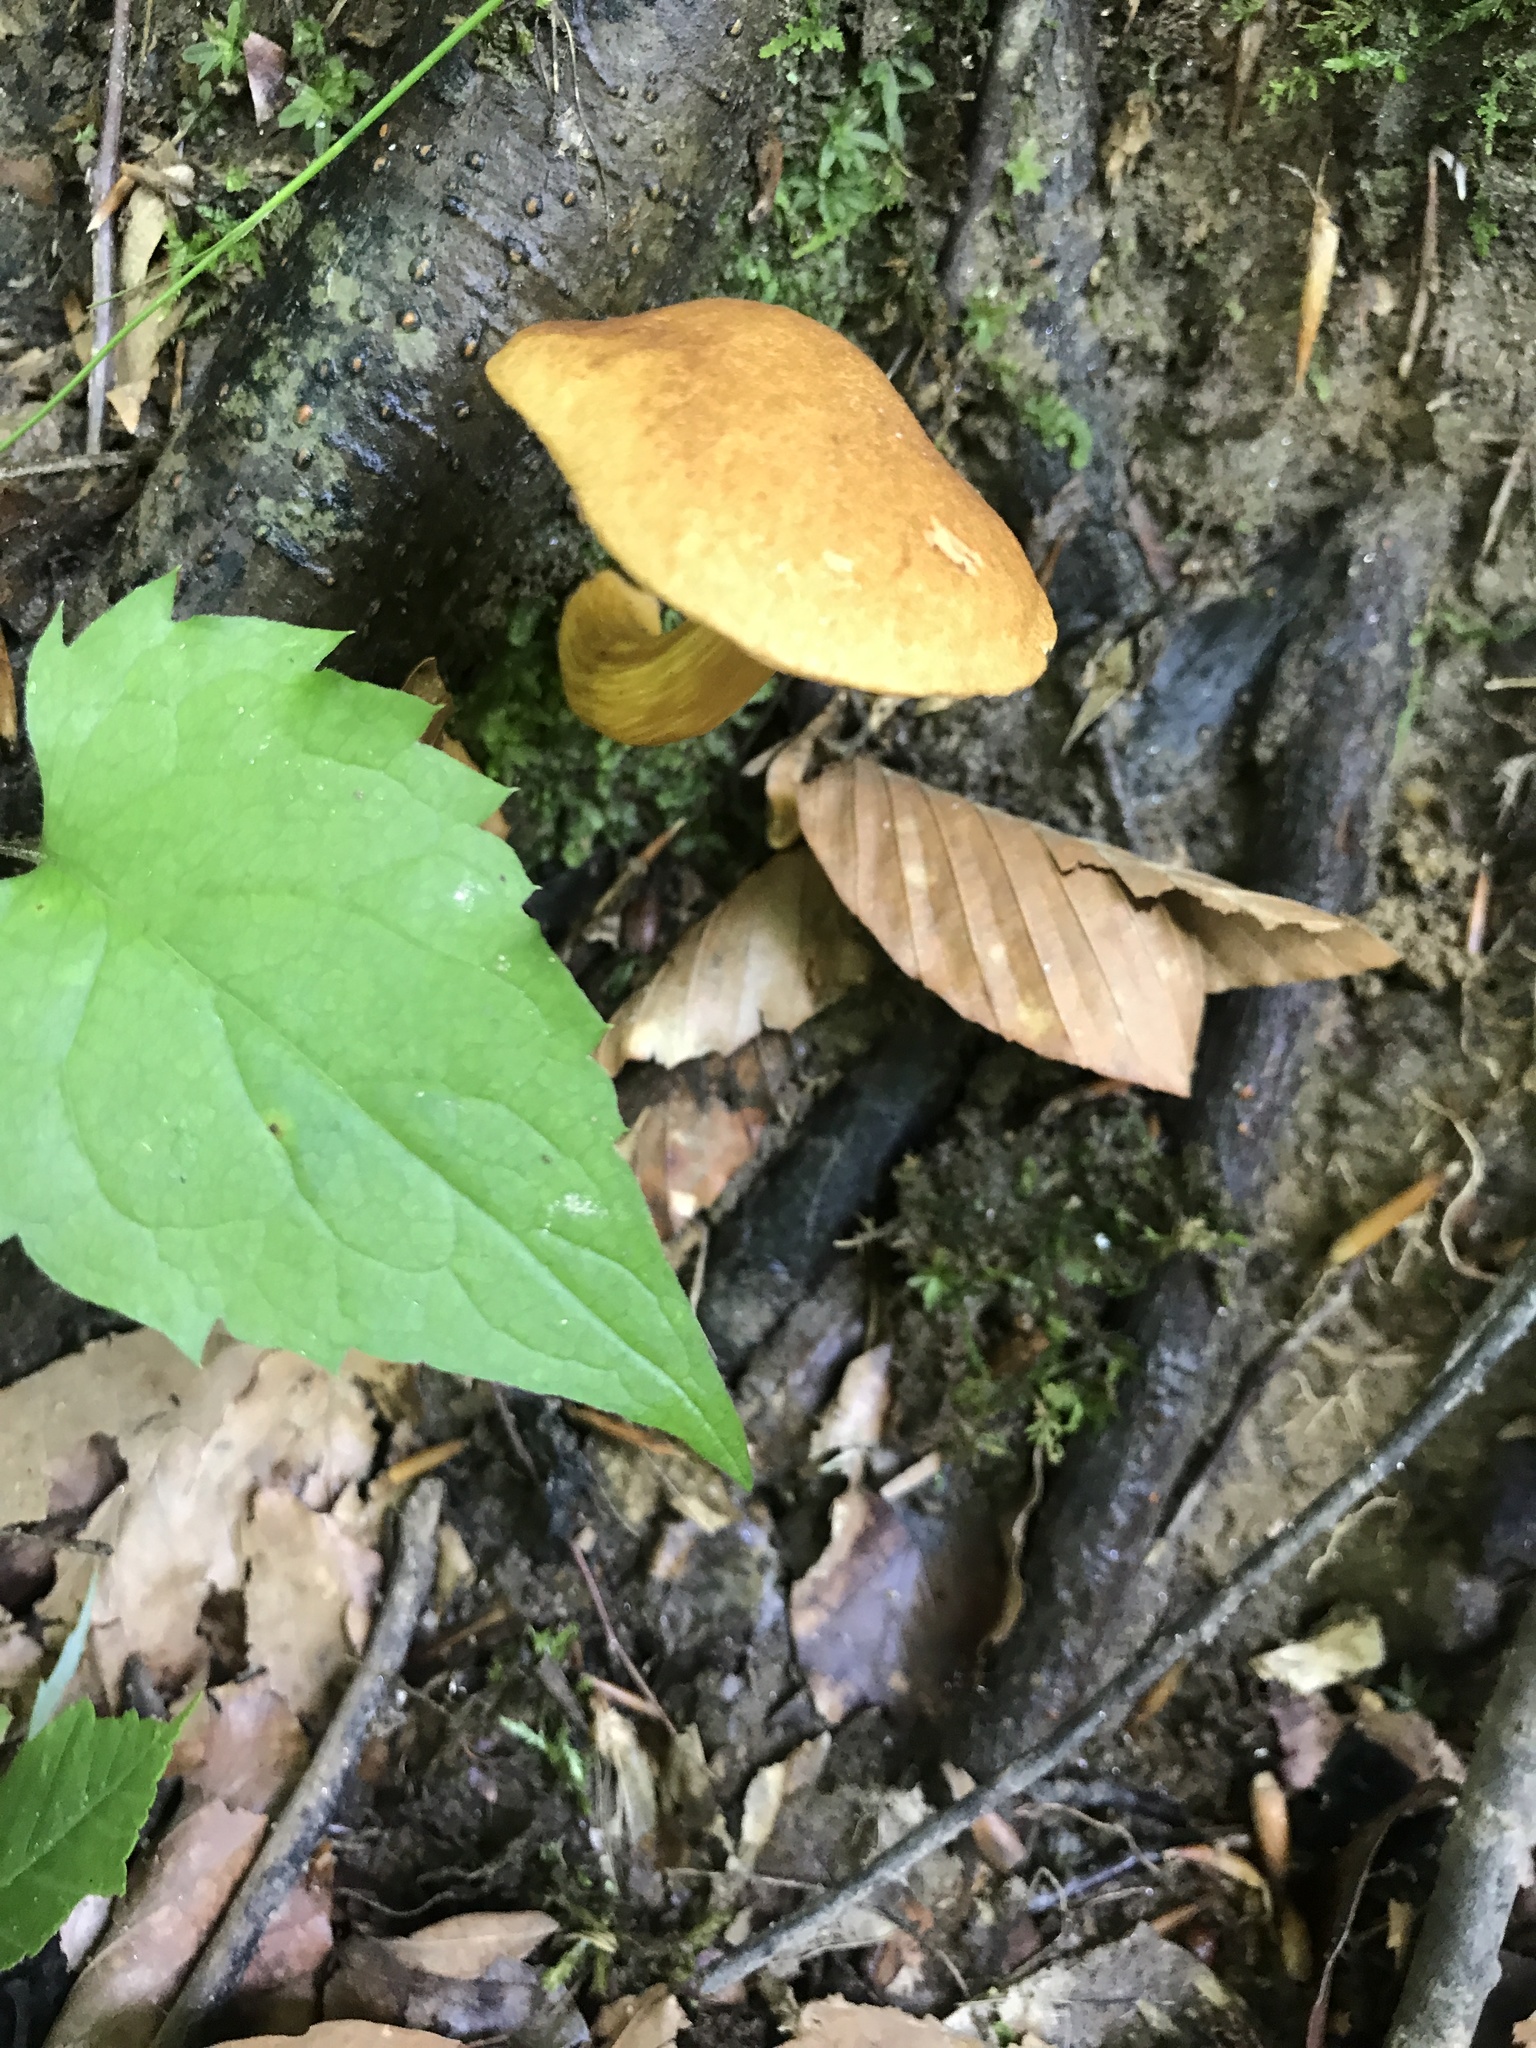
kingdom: Fungi
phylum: Basidiomycota
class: Agaricomycetes
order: Boletales
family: Boletaceae
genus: Aureoboletus
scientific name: Aureoboletus roxanae
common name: Roxane's bolete
